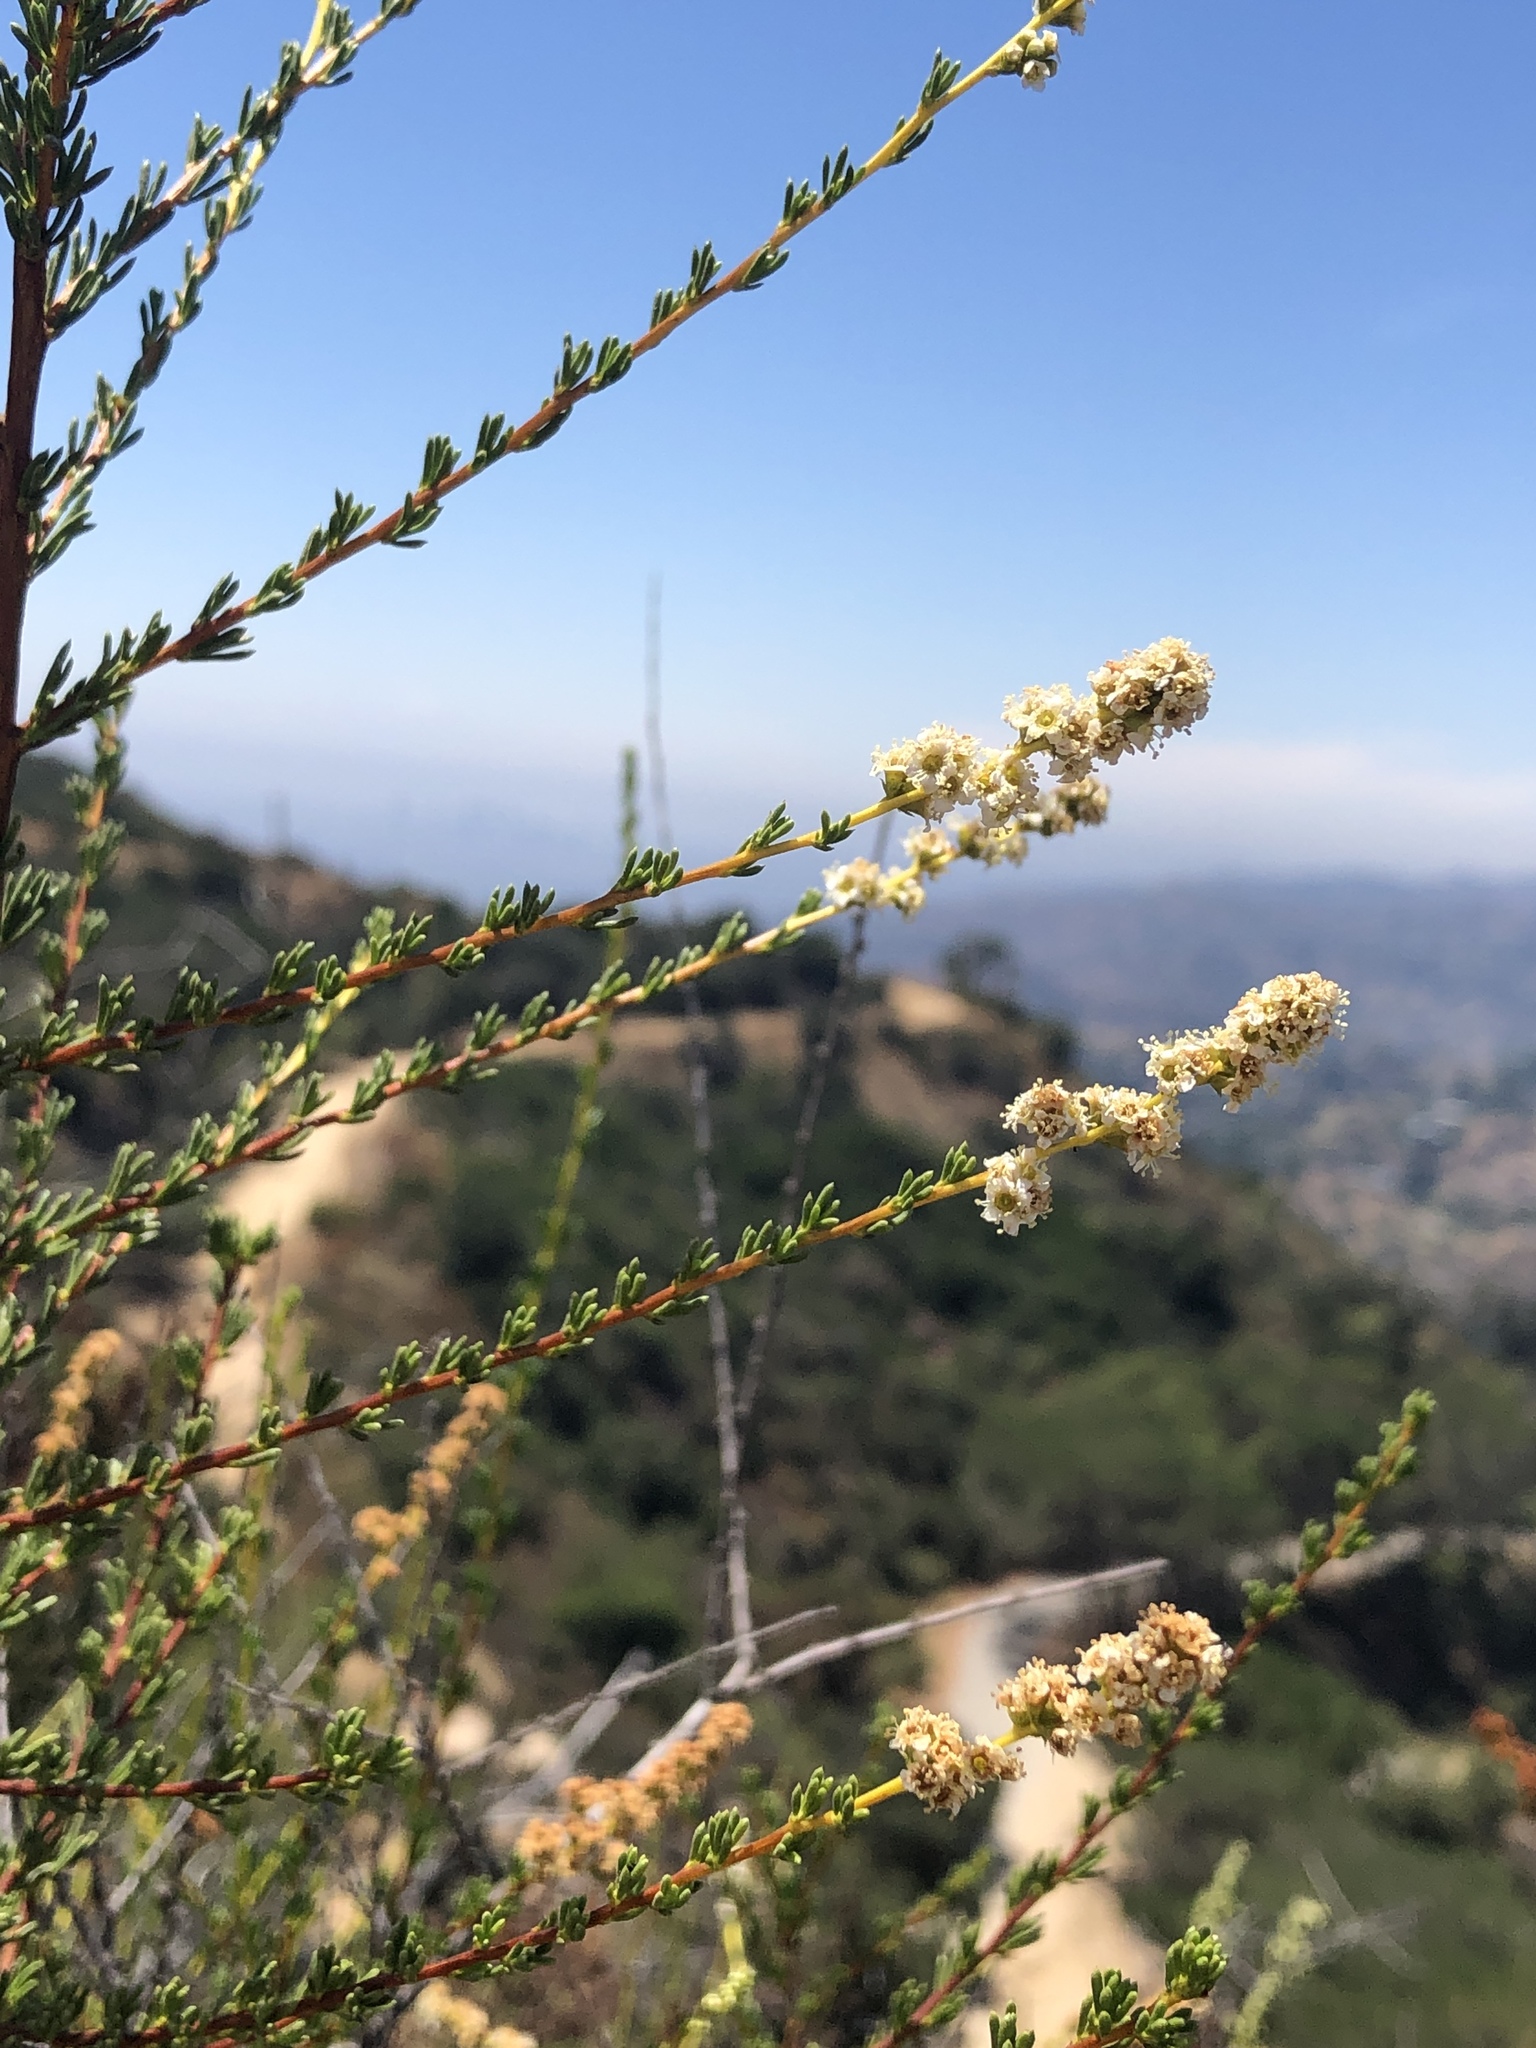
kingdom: Plantae
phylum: Tracheophyta
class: Magnoliopsida
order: Rosales
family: Rosaceae
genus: Adenostoma
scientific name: Adenostoma fasciculatum
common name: Chamise
